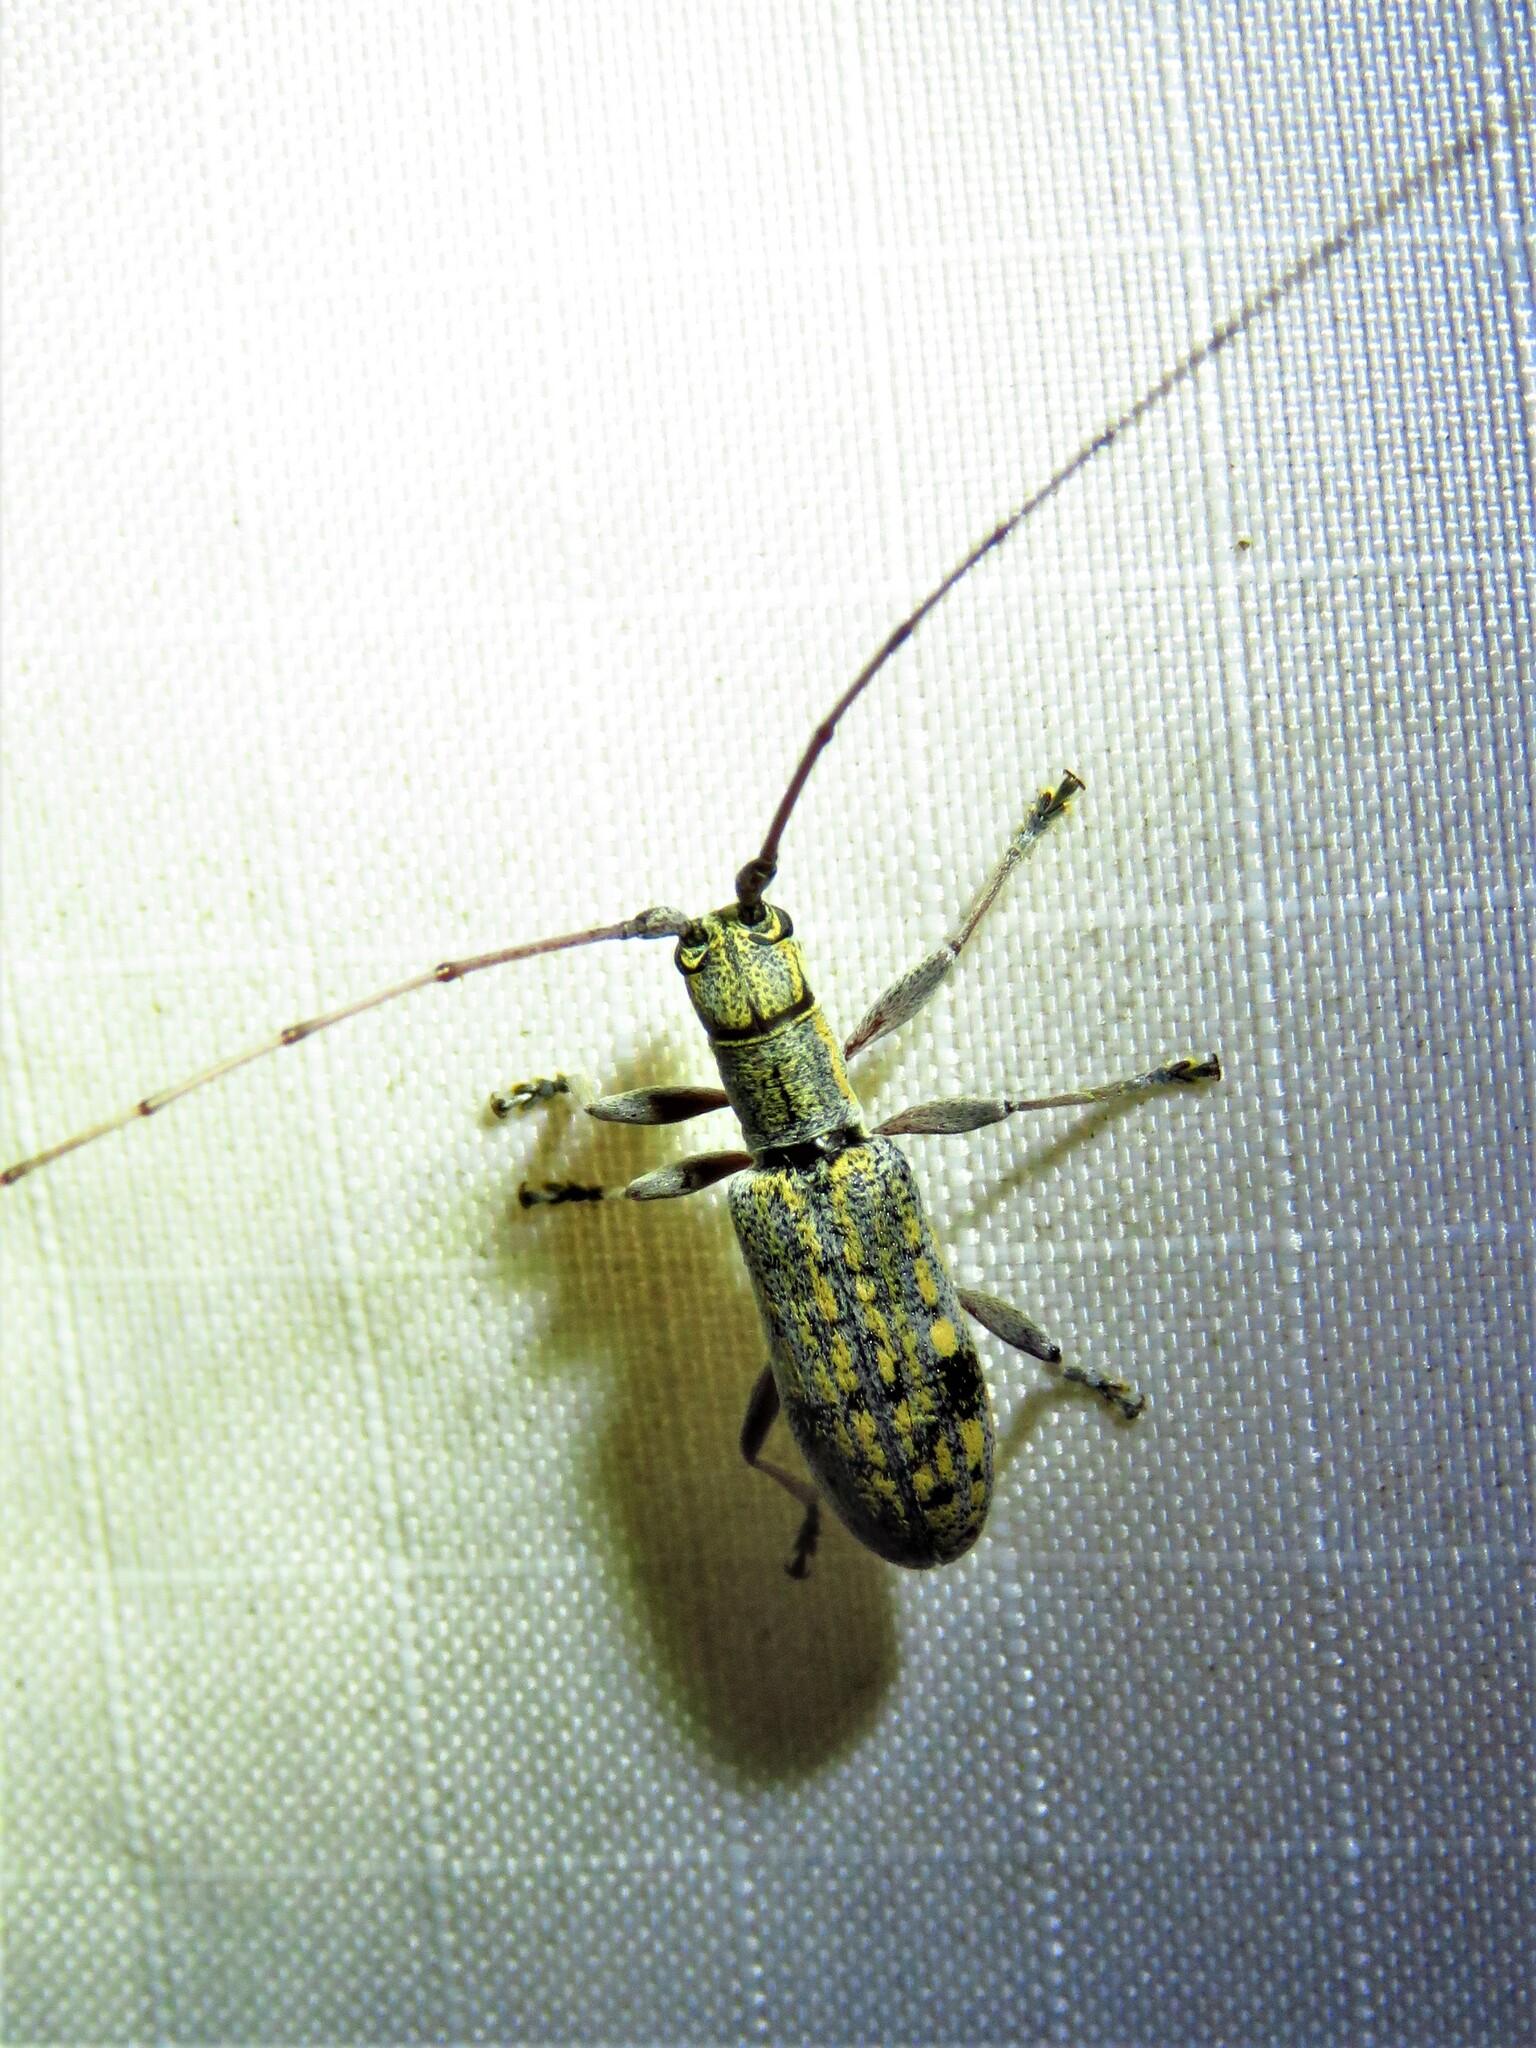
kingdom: Animalia
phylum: Arthropoda
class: Insecta
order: Coleoptera
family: Cerambycidae
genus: Dorcaschema
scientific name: Dorcaschema alternatum
